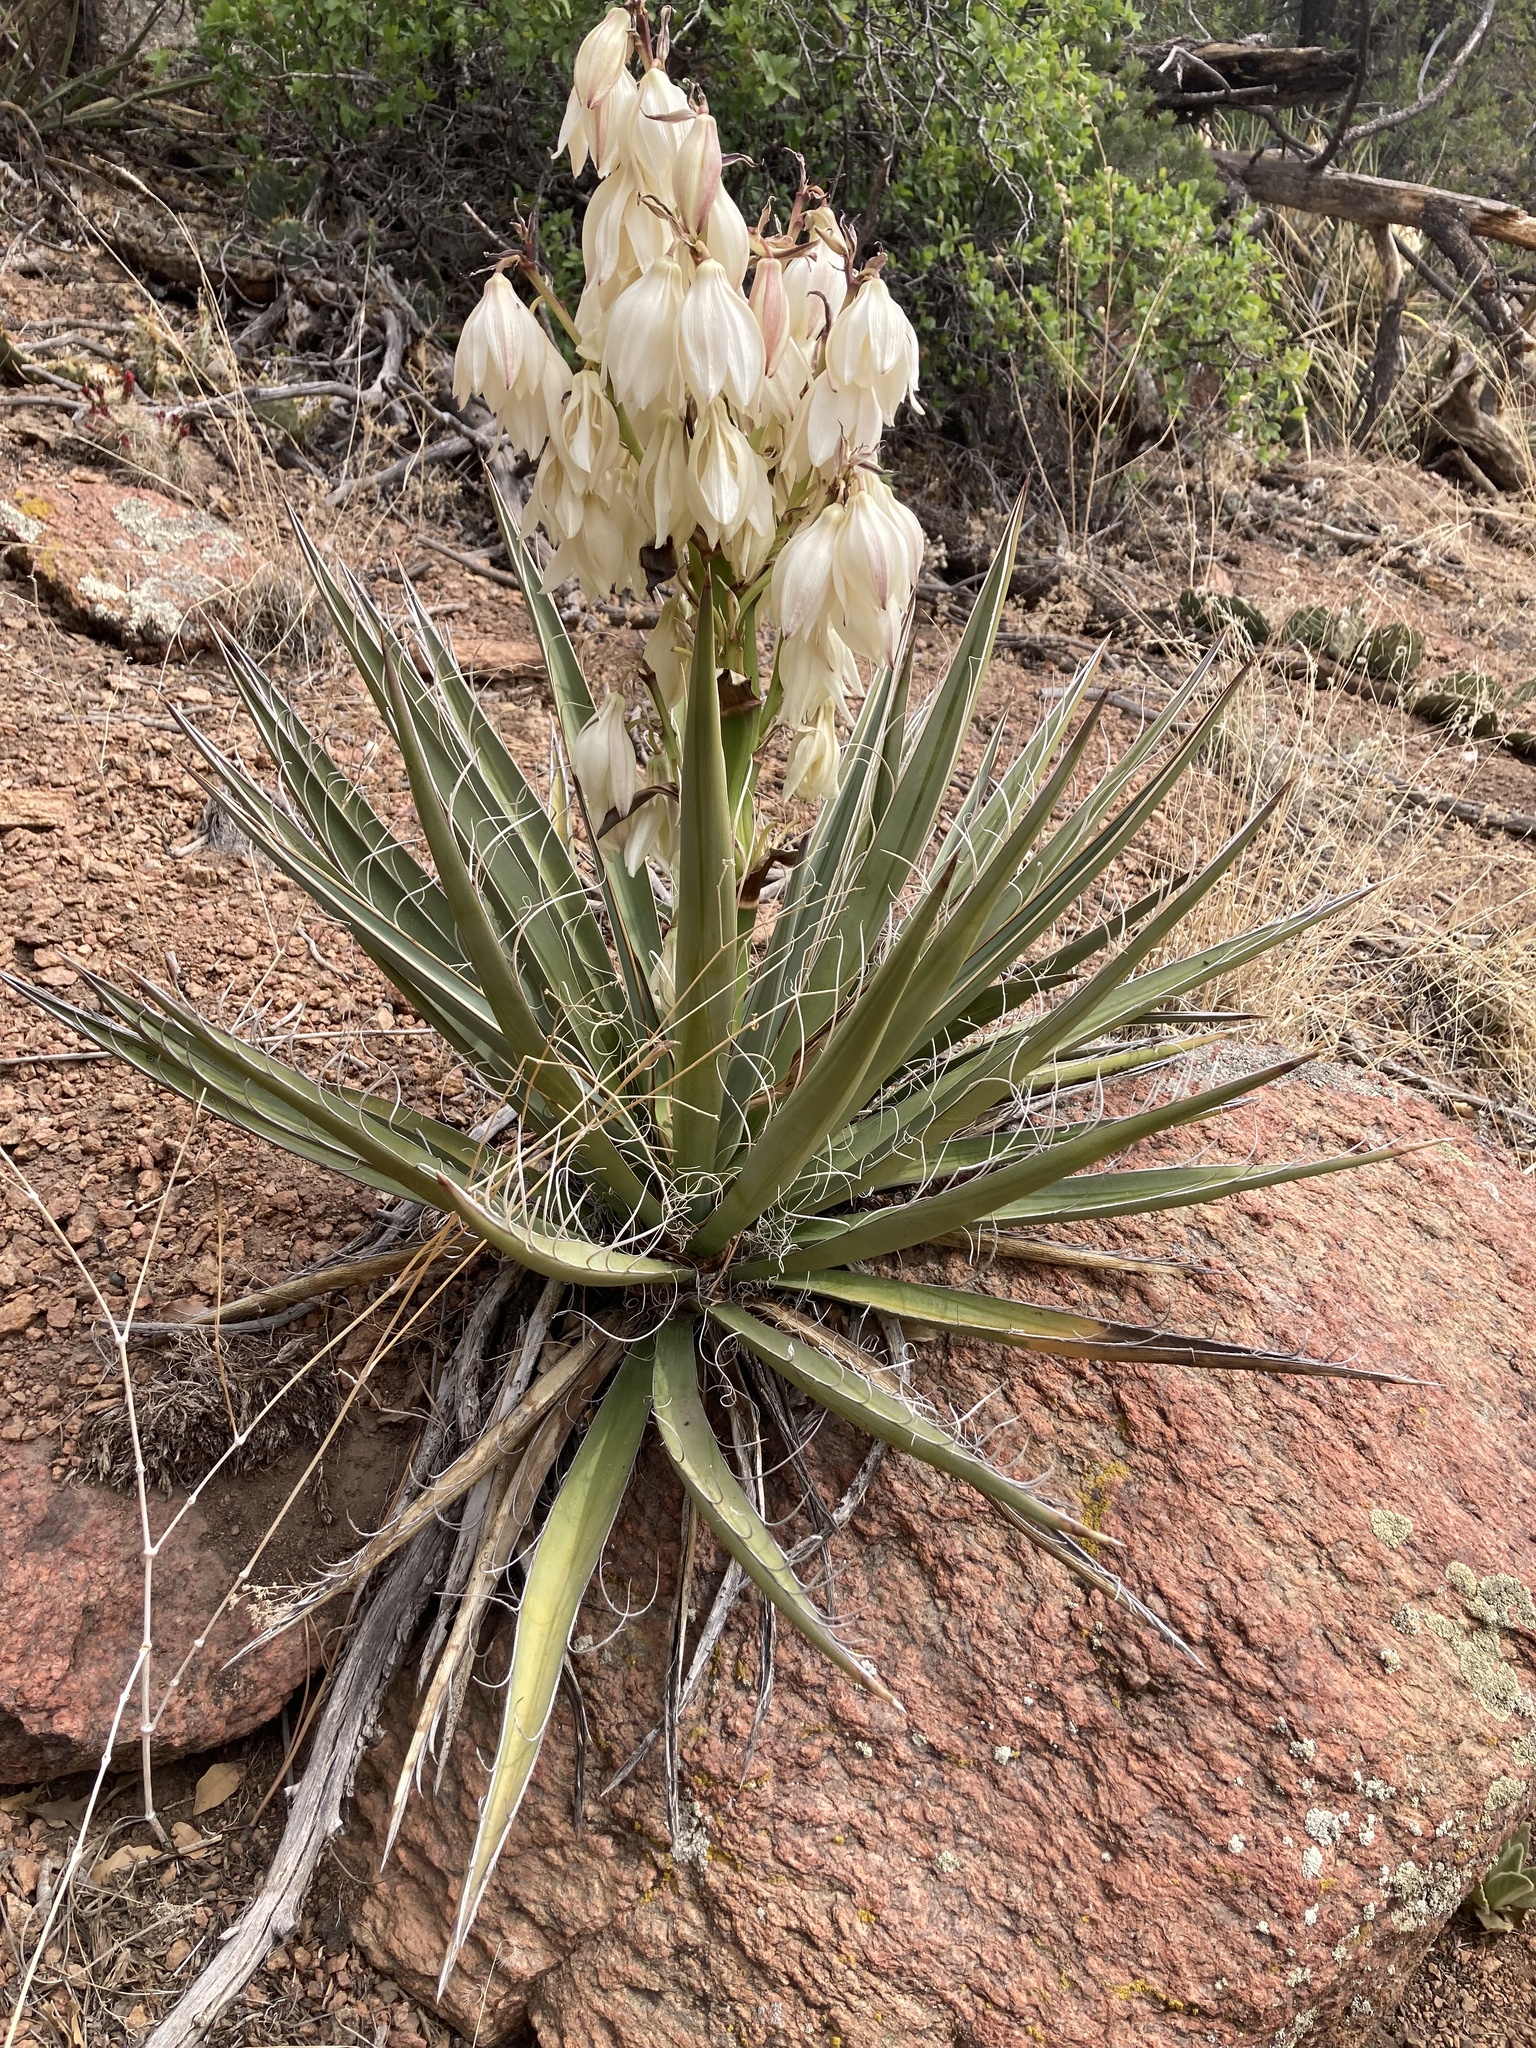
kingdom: Plantae
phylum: Tracheophyta
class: Liliopsida
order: Asparagales
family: Asparagaceae
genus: Yucca
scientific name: Yucca baccata
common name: Banana yucca
